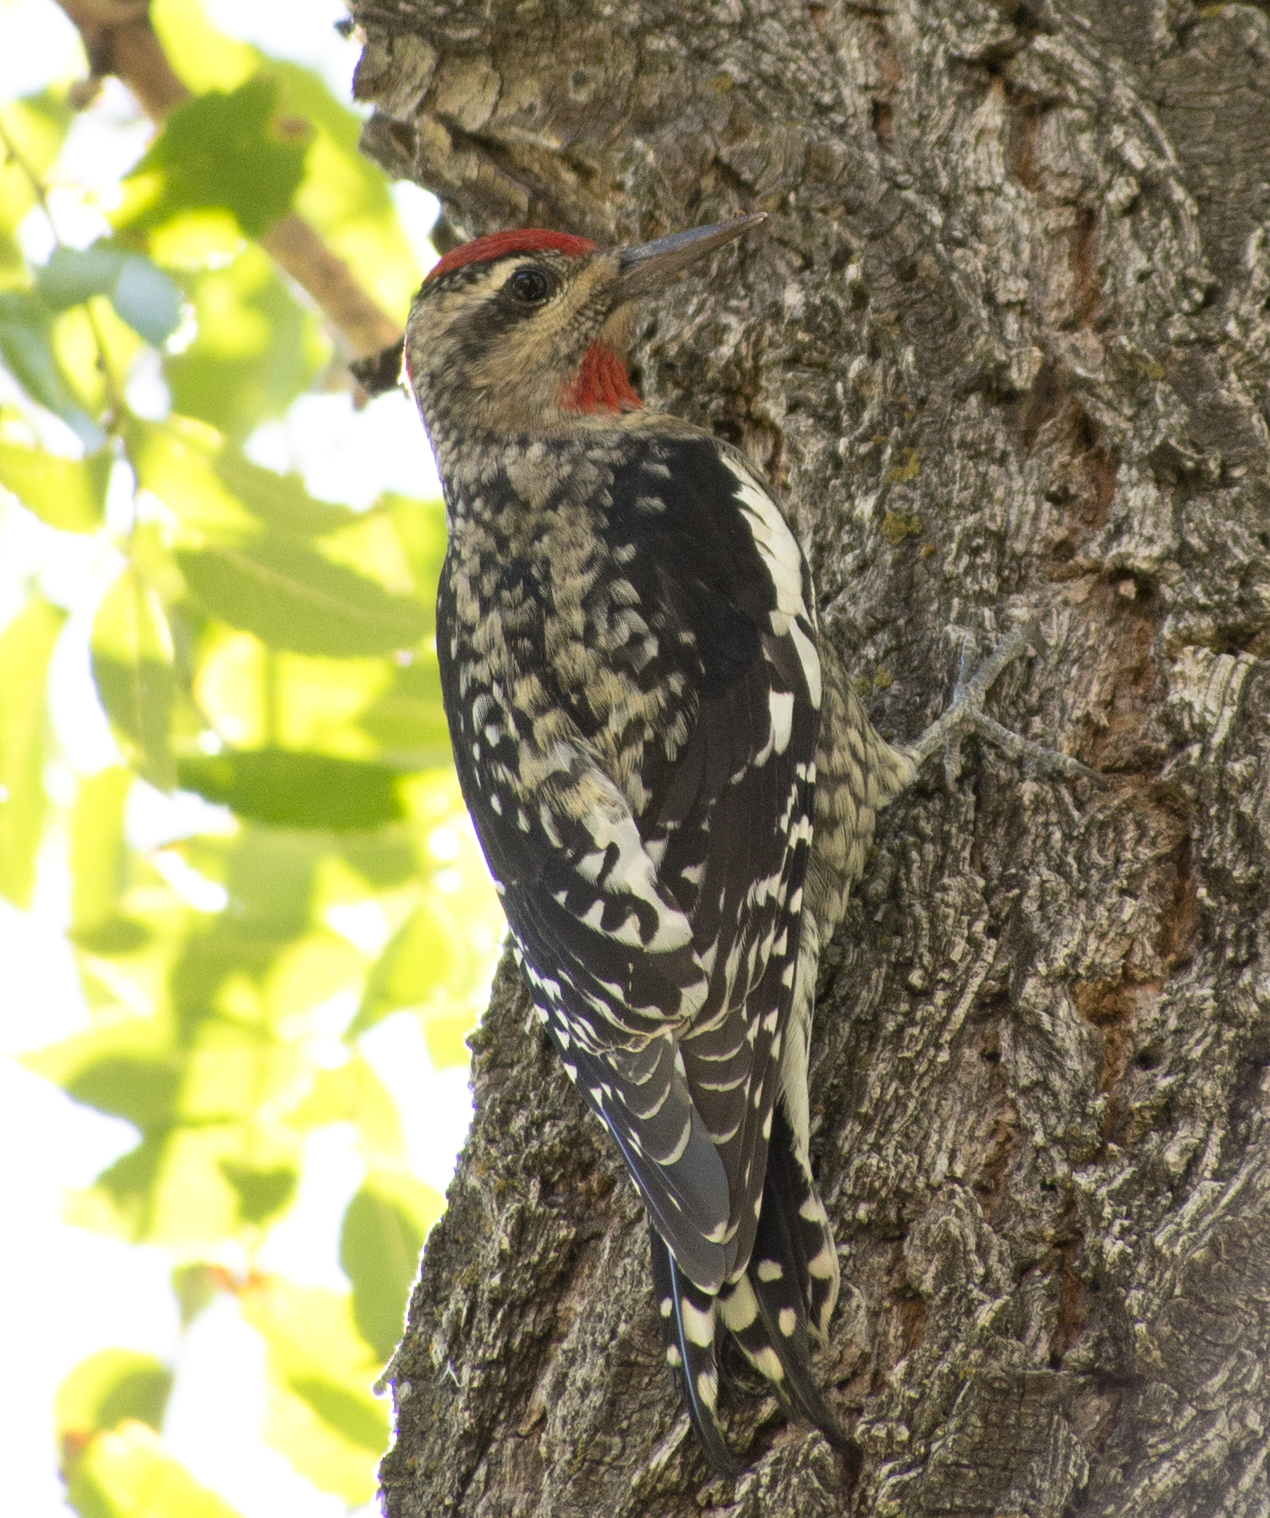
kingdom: Animalia
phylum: Chordata
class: Aves
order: Piciformes
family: Picidae
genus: Sphyrapicus
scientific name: Sphyrapicus nuchalis
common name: Red-naped sapsucker
